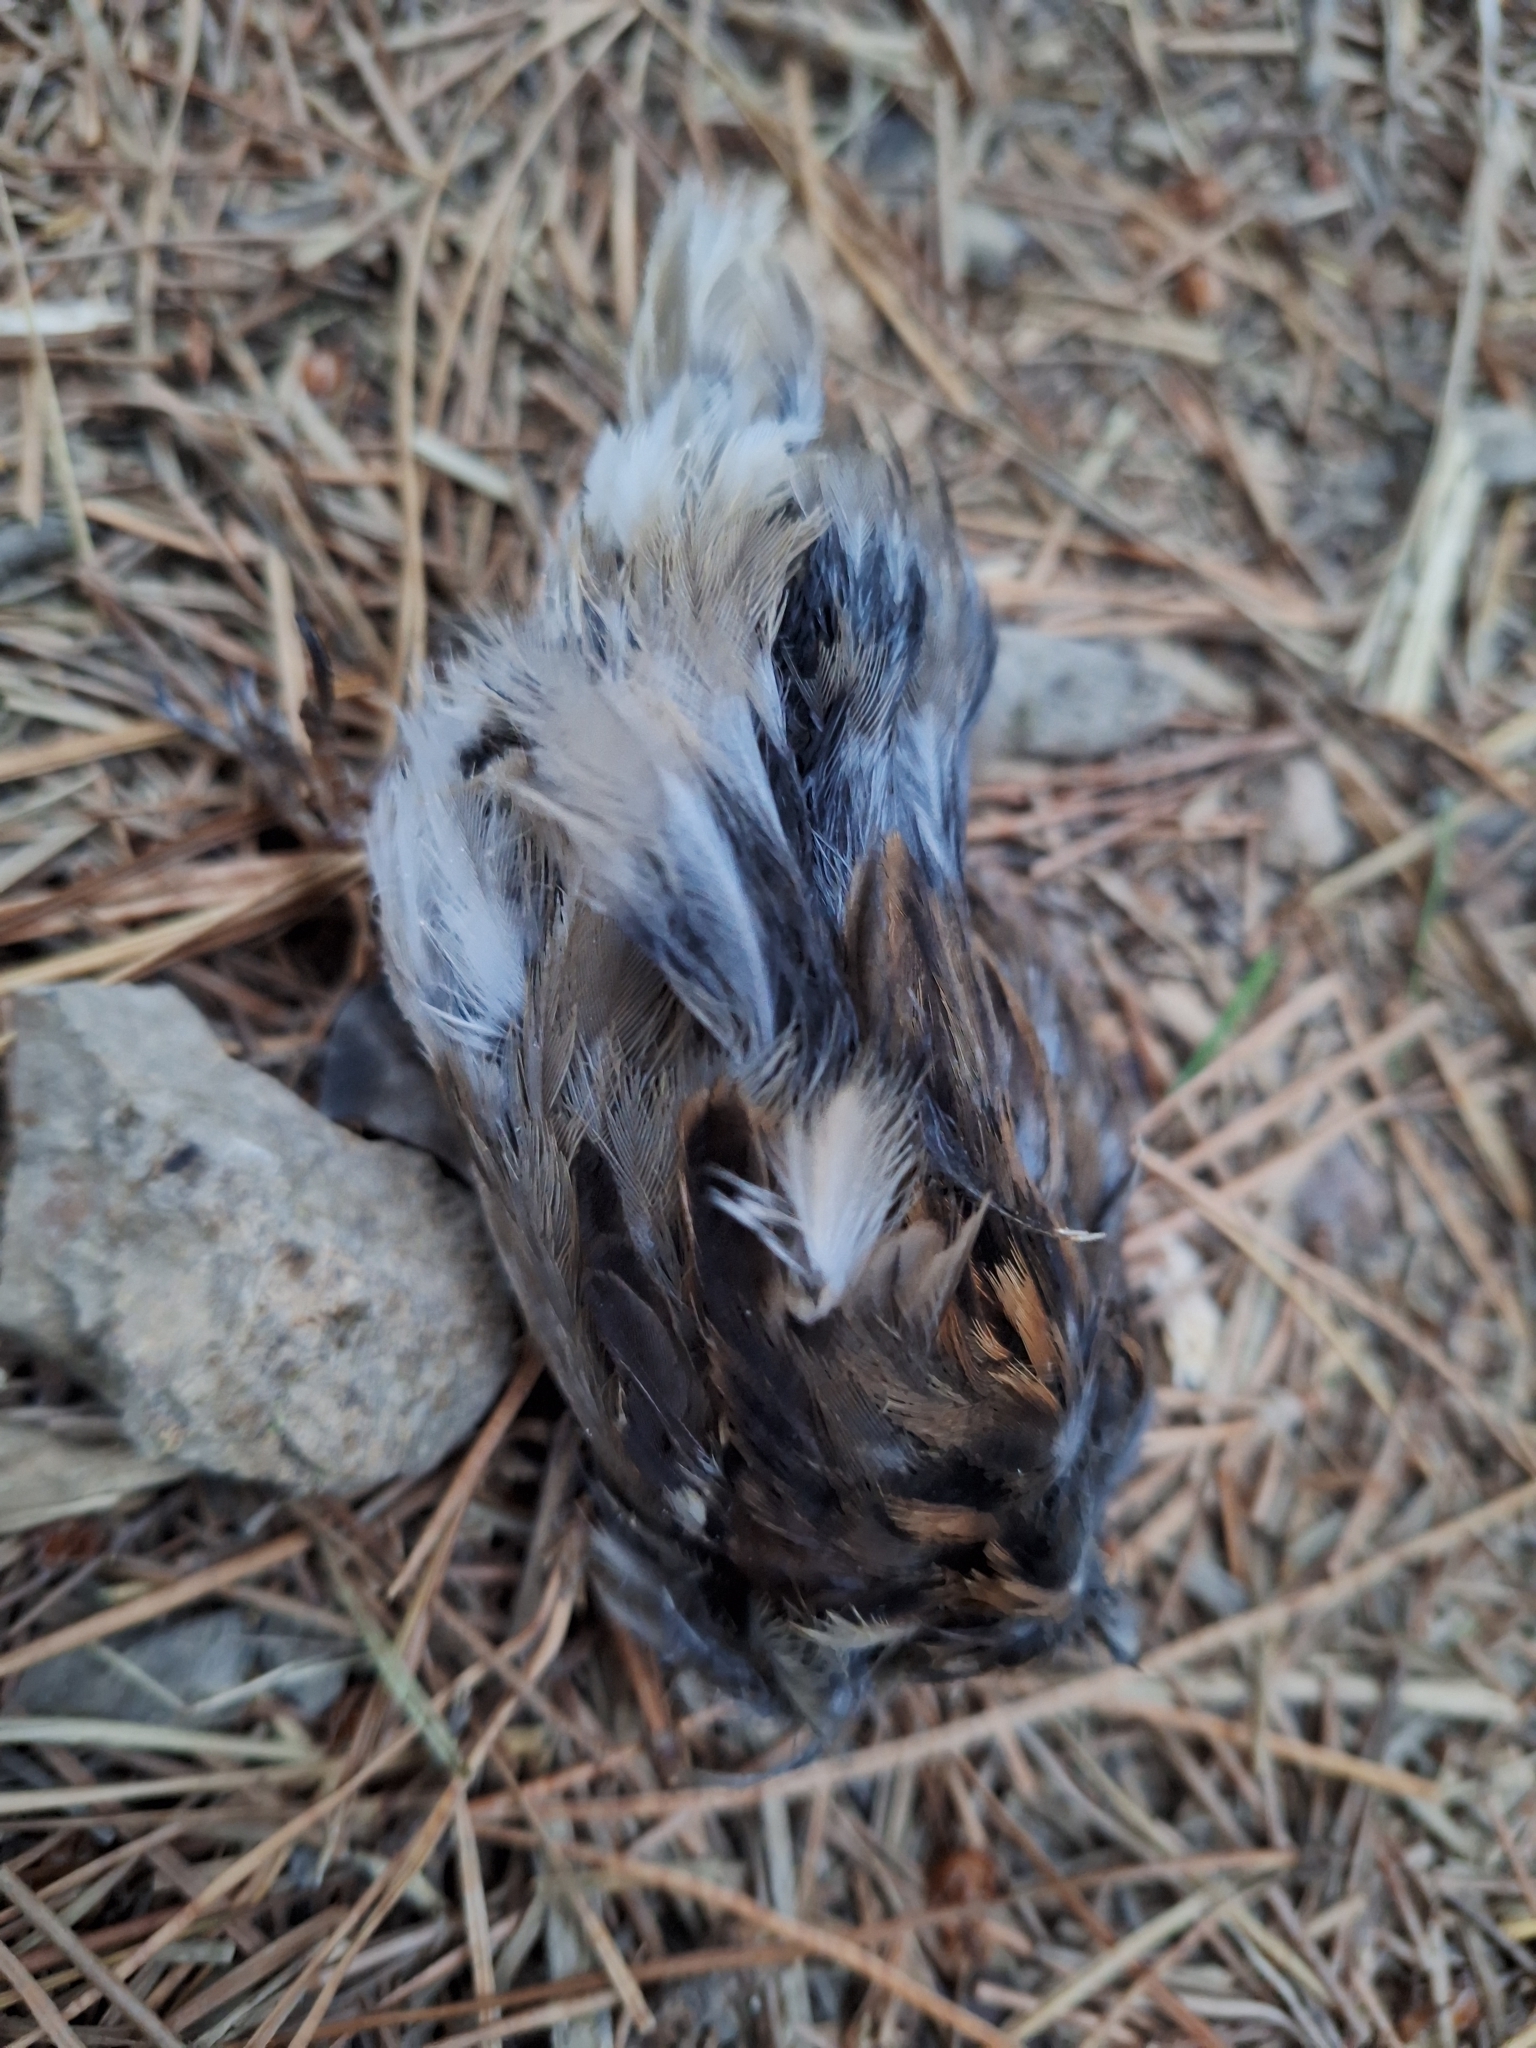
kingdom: Animalia
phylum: Chordata
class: Aves
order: Passeriformes
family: Passeridae
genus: Passer
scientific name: Passer domesticus
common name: House sparrow
